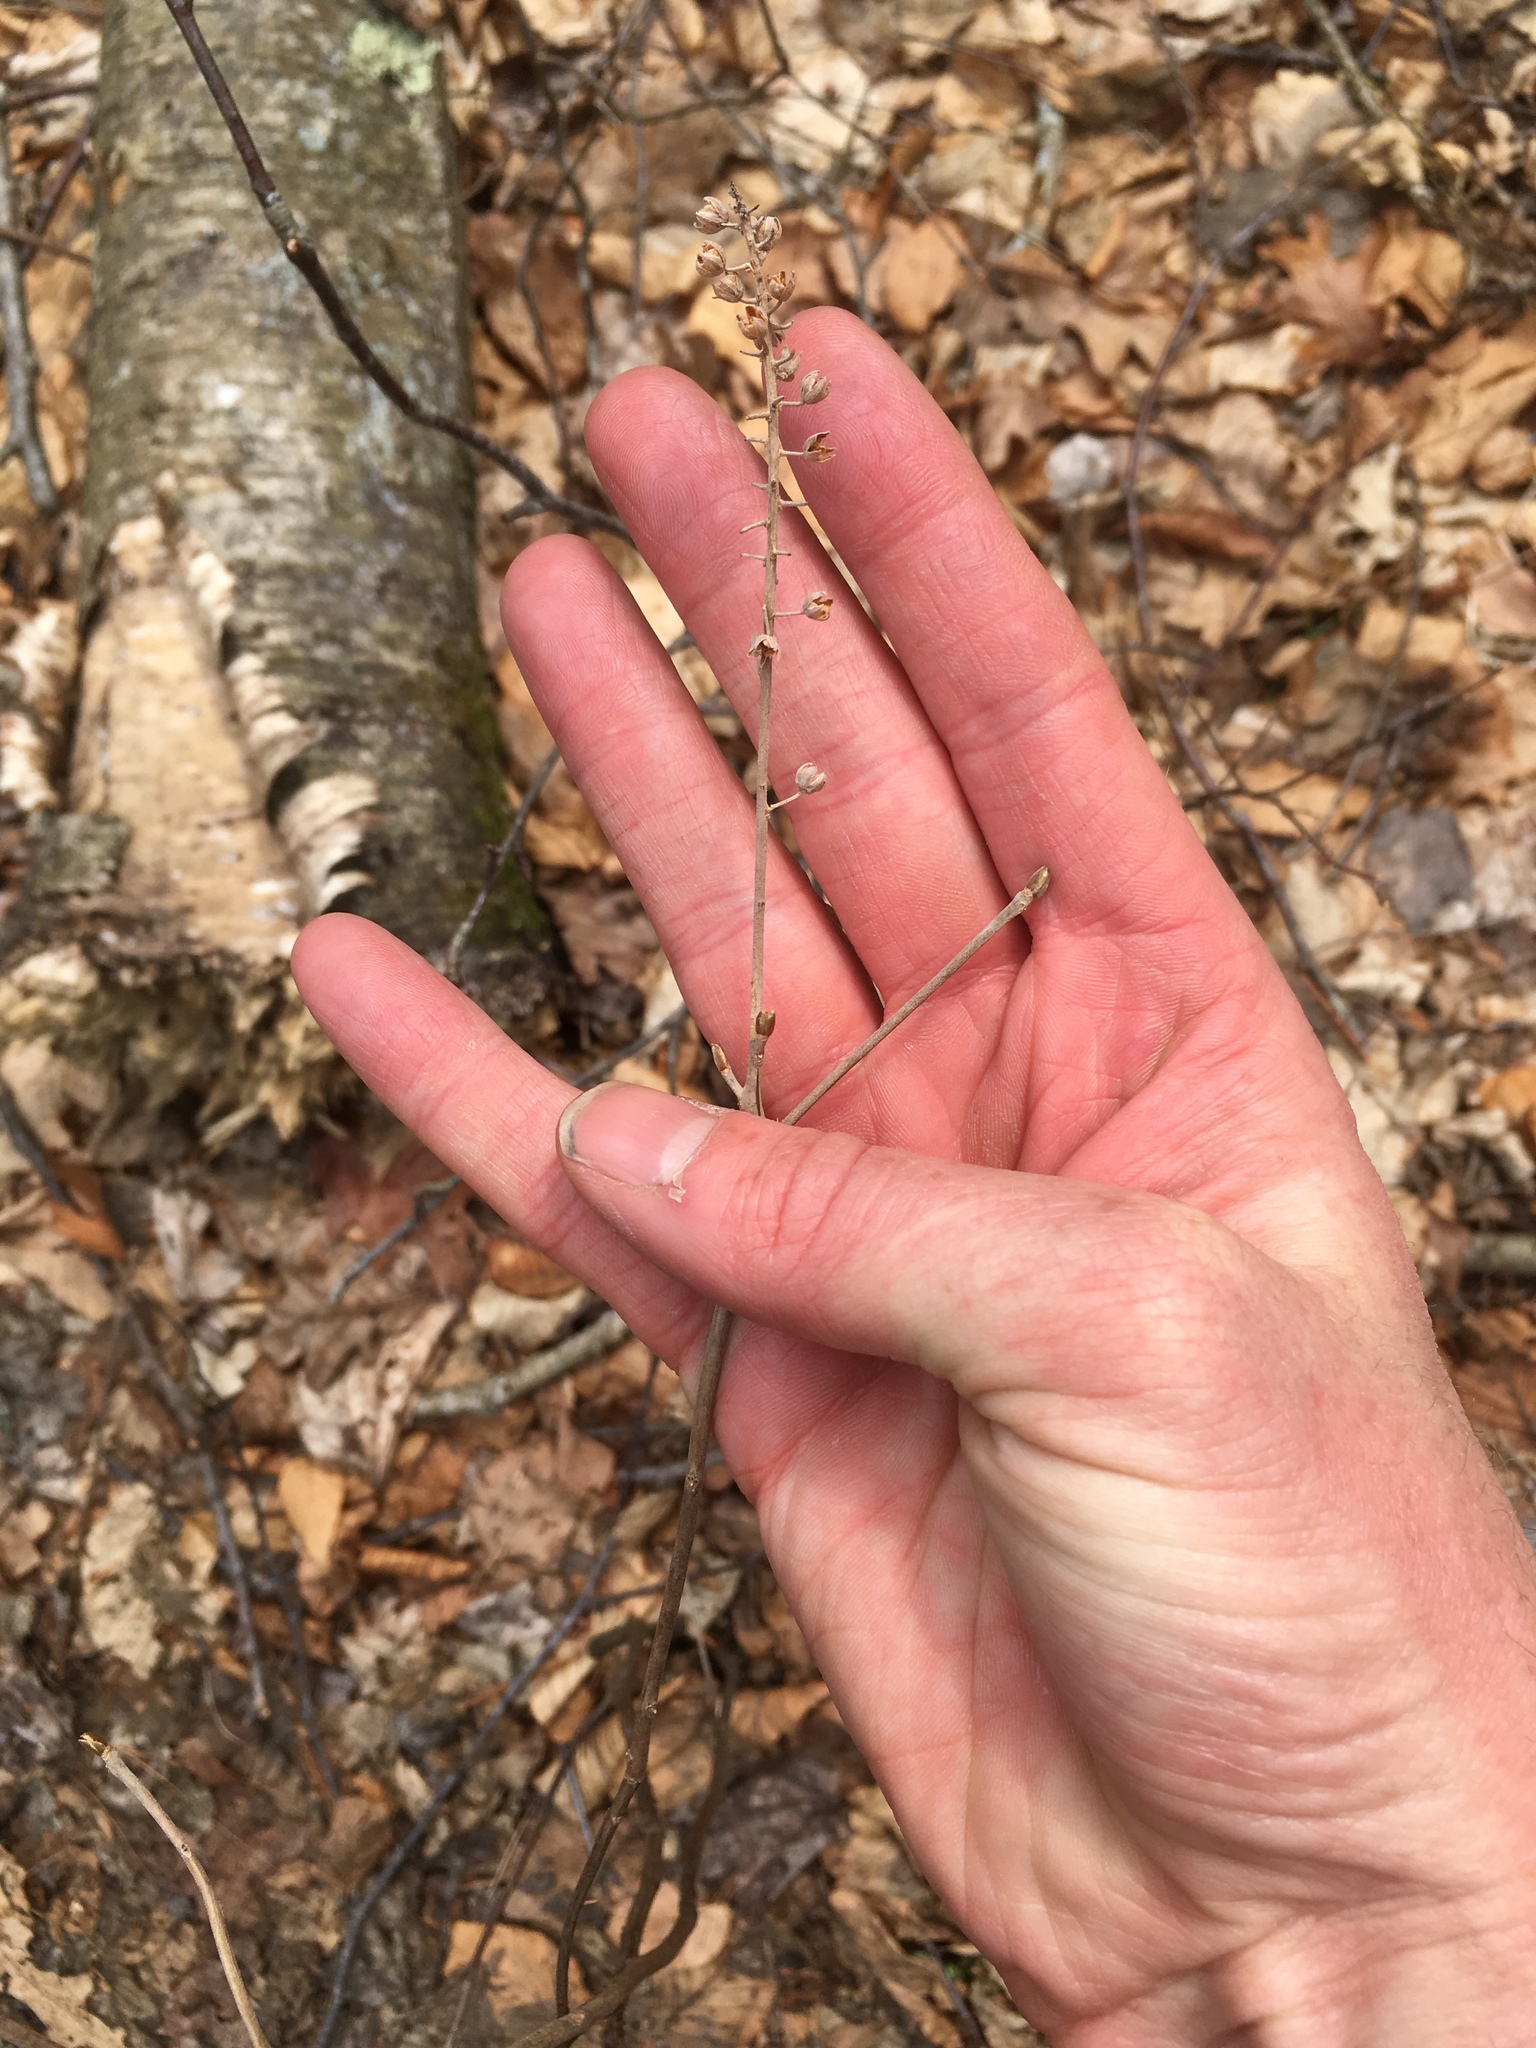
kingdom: Plantae
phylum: Tracheophyta
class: Magnoliopsida
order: Ericales
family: Clethraceae
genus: Clethra
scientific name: Clethra alnifolia
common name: Sweet pepperbush
